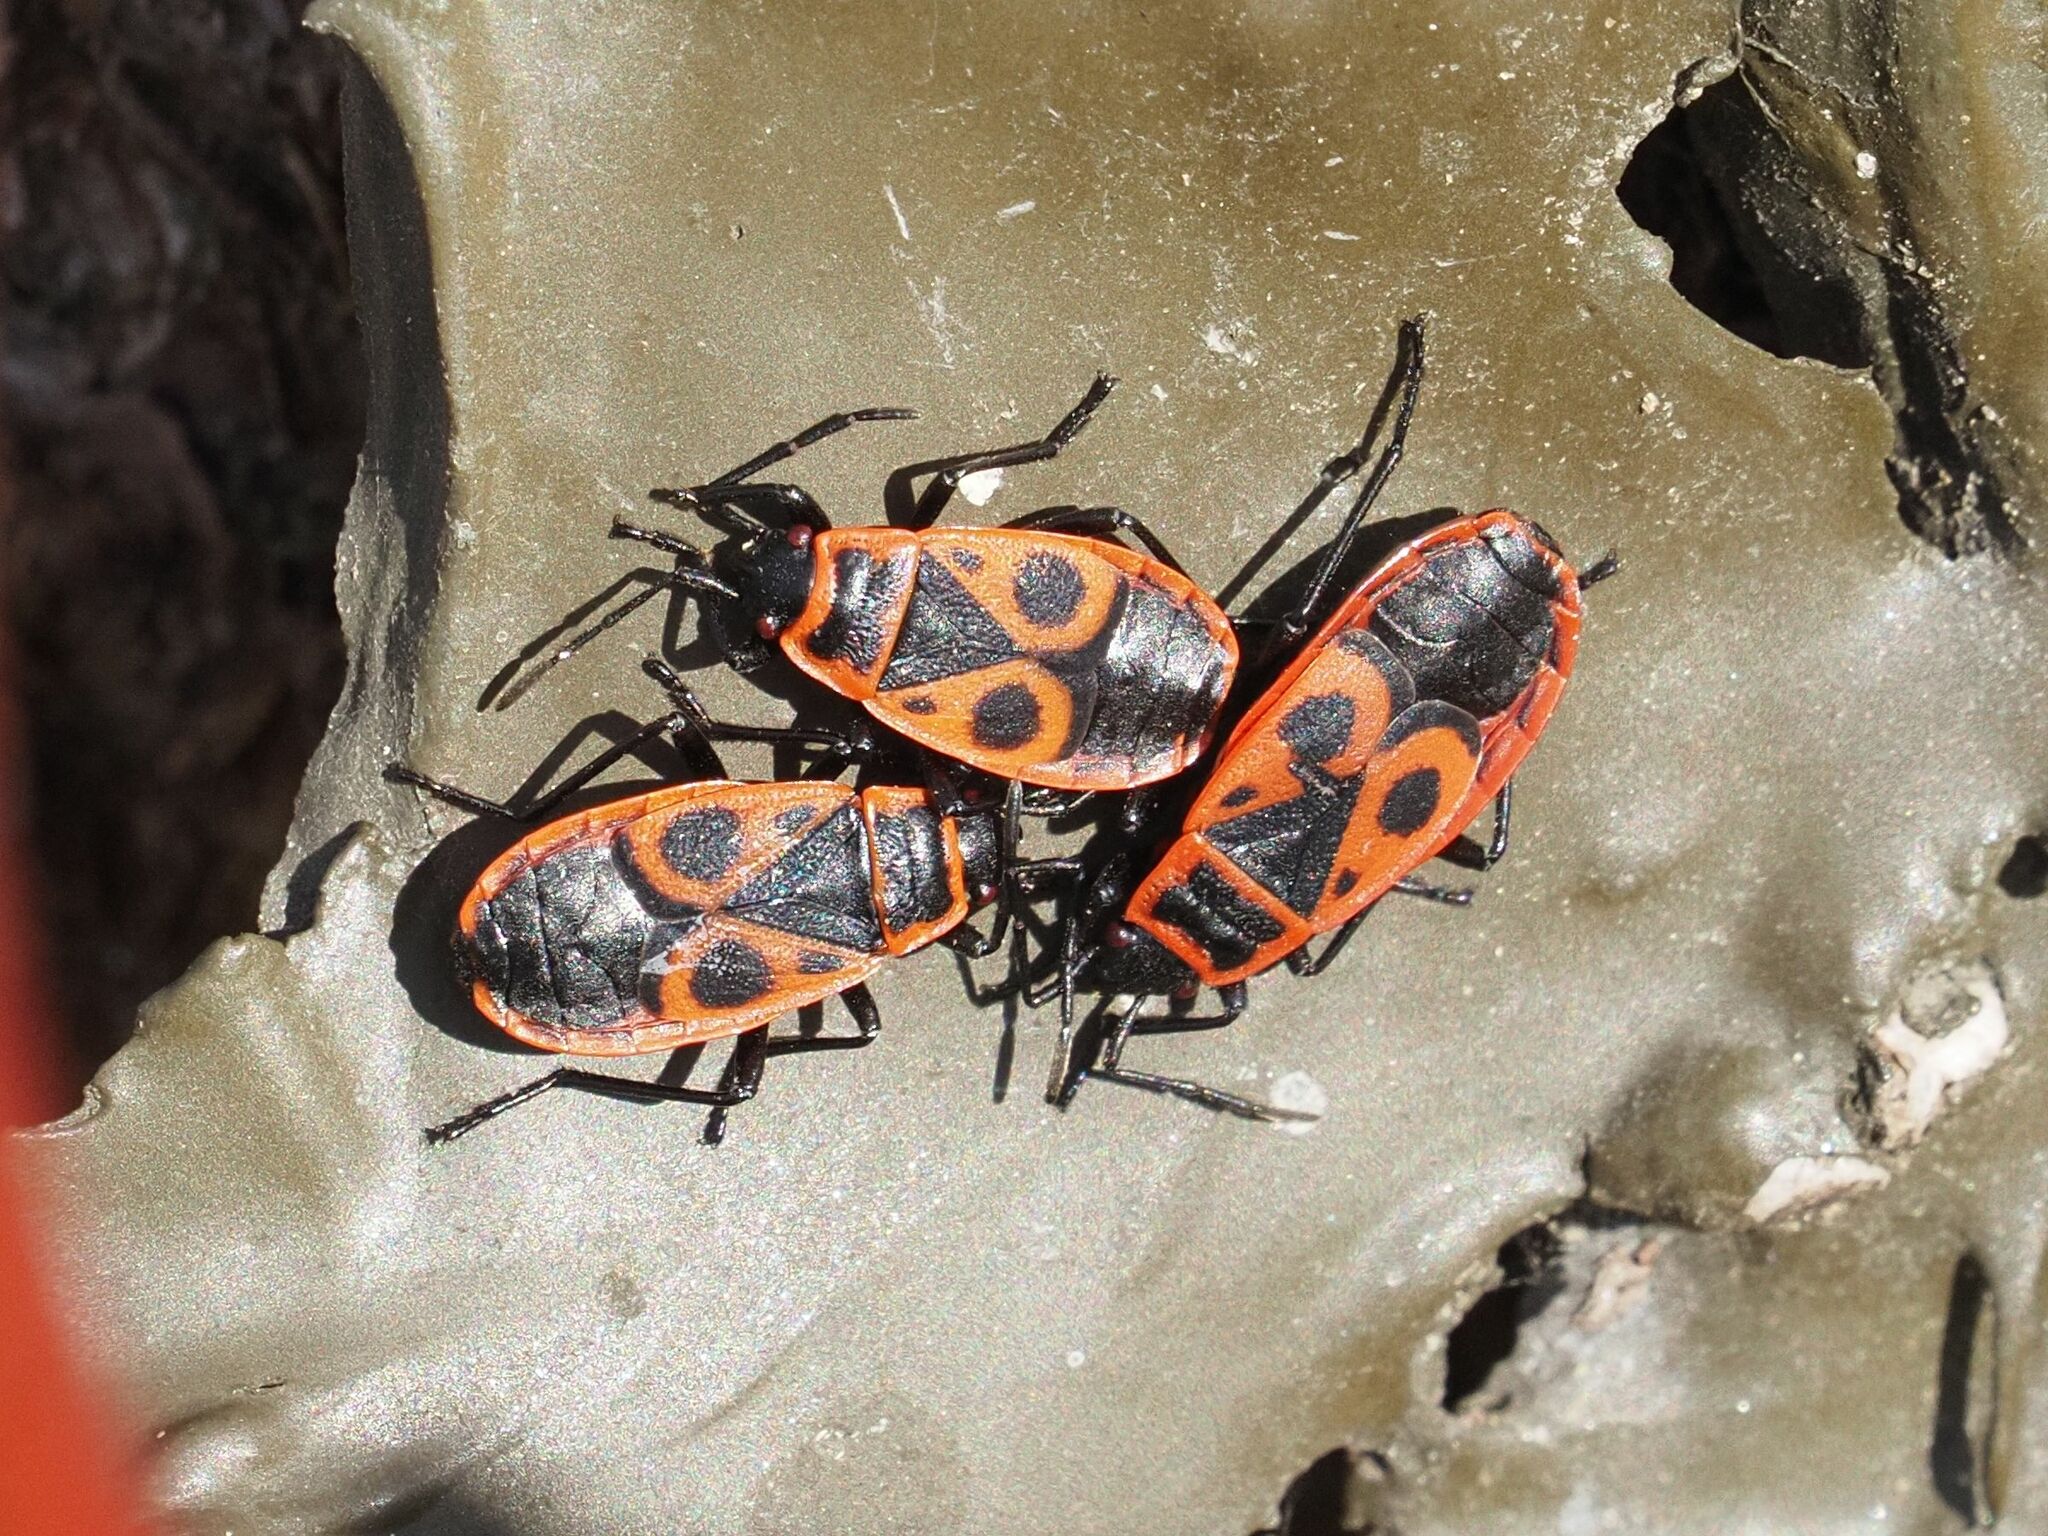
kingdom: Animalia
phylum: Arthropoda
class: Insecta
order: Hemiptera
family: Pyrrhocoridae
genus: Pyrrhocoris
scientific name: Pyrrhocoris apterus
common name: Firebug
